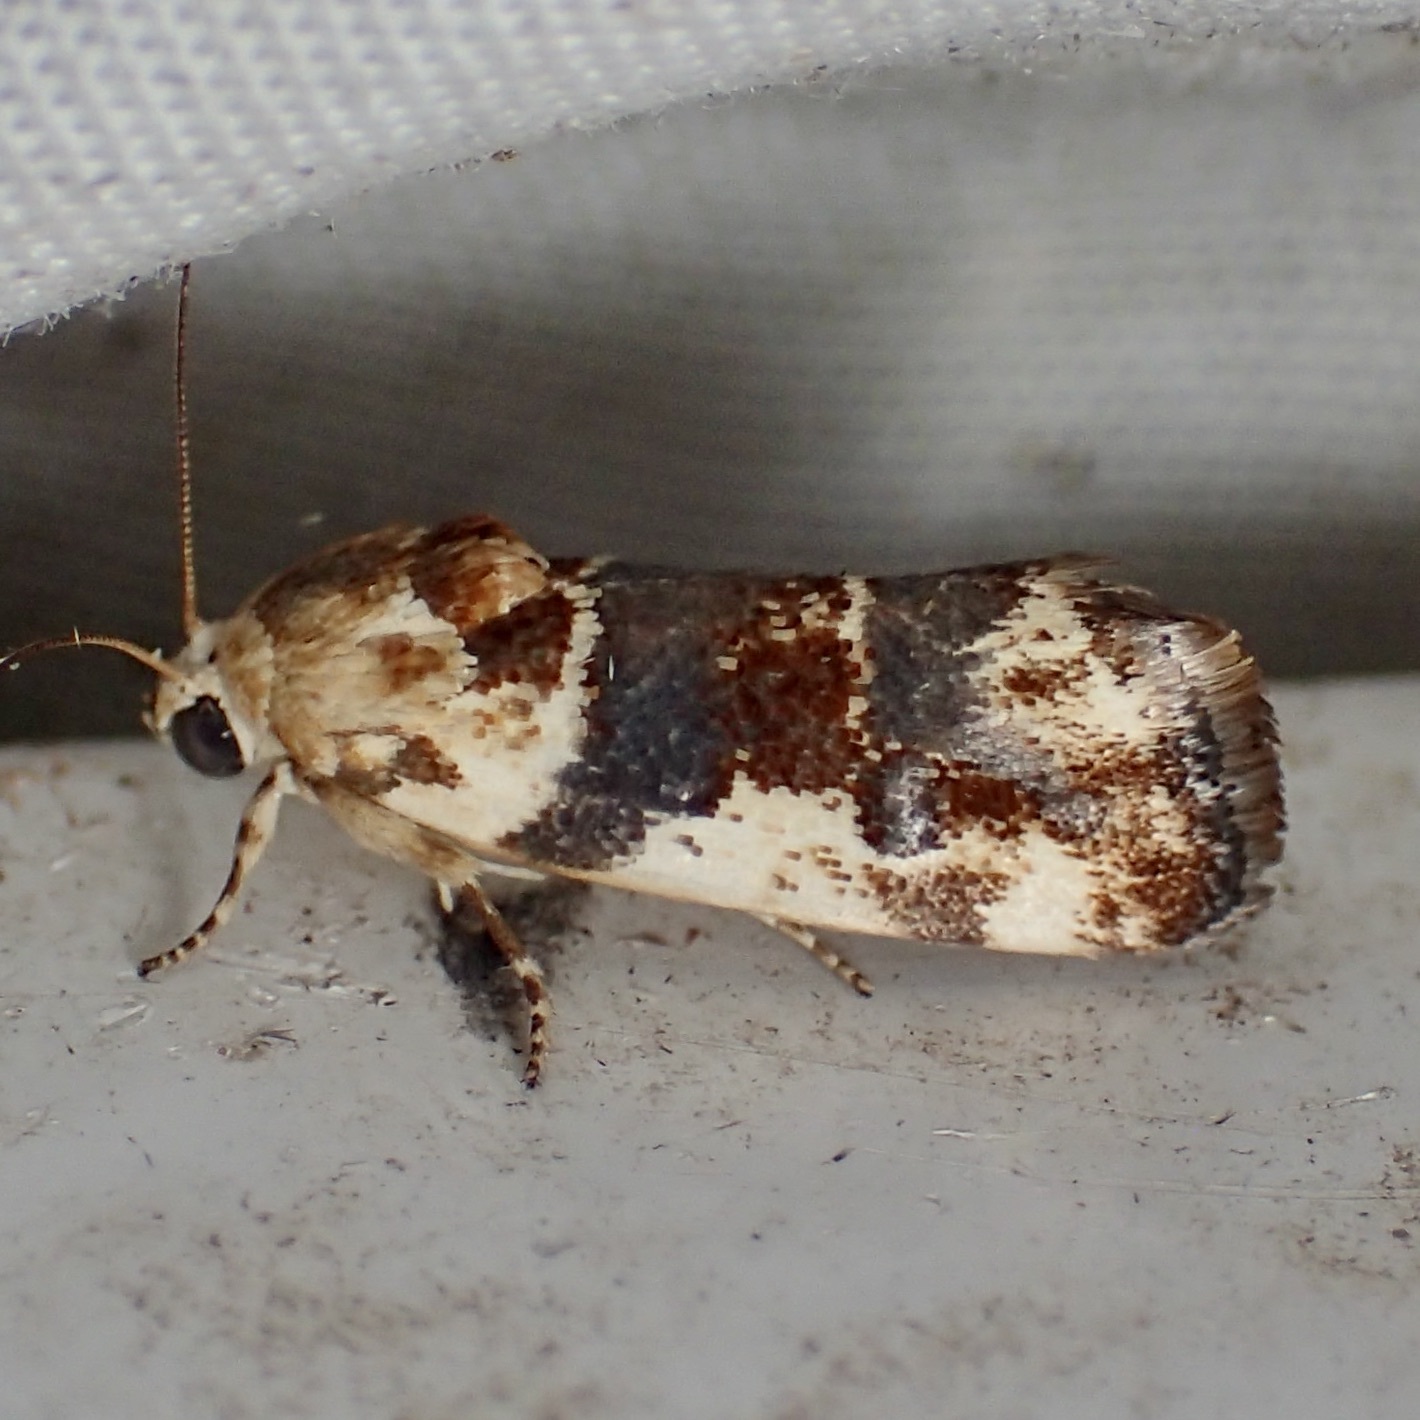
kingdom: Animalia
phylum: Arthropoda
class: Insecta
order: Lepidoptera
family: Noctuidae
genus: Acontia
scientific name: Acontia obatra
